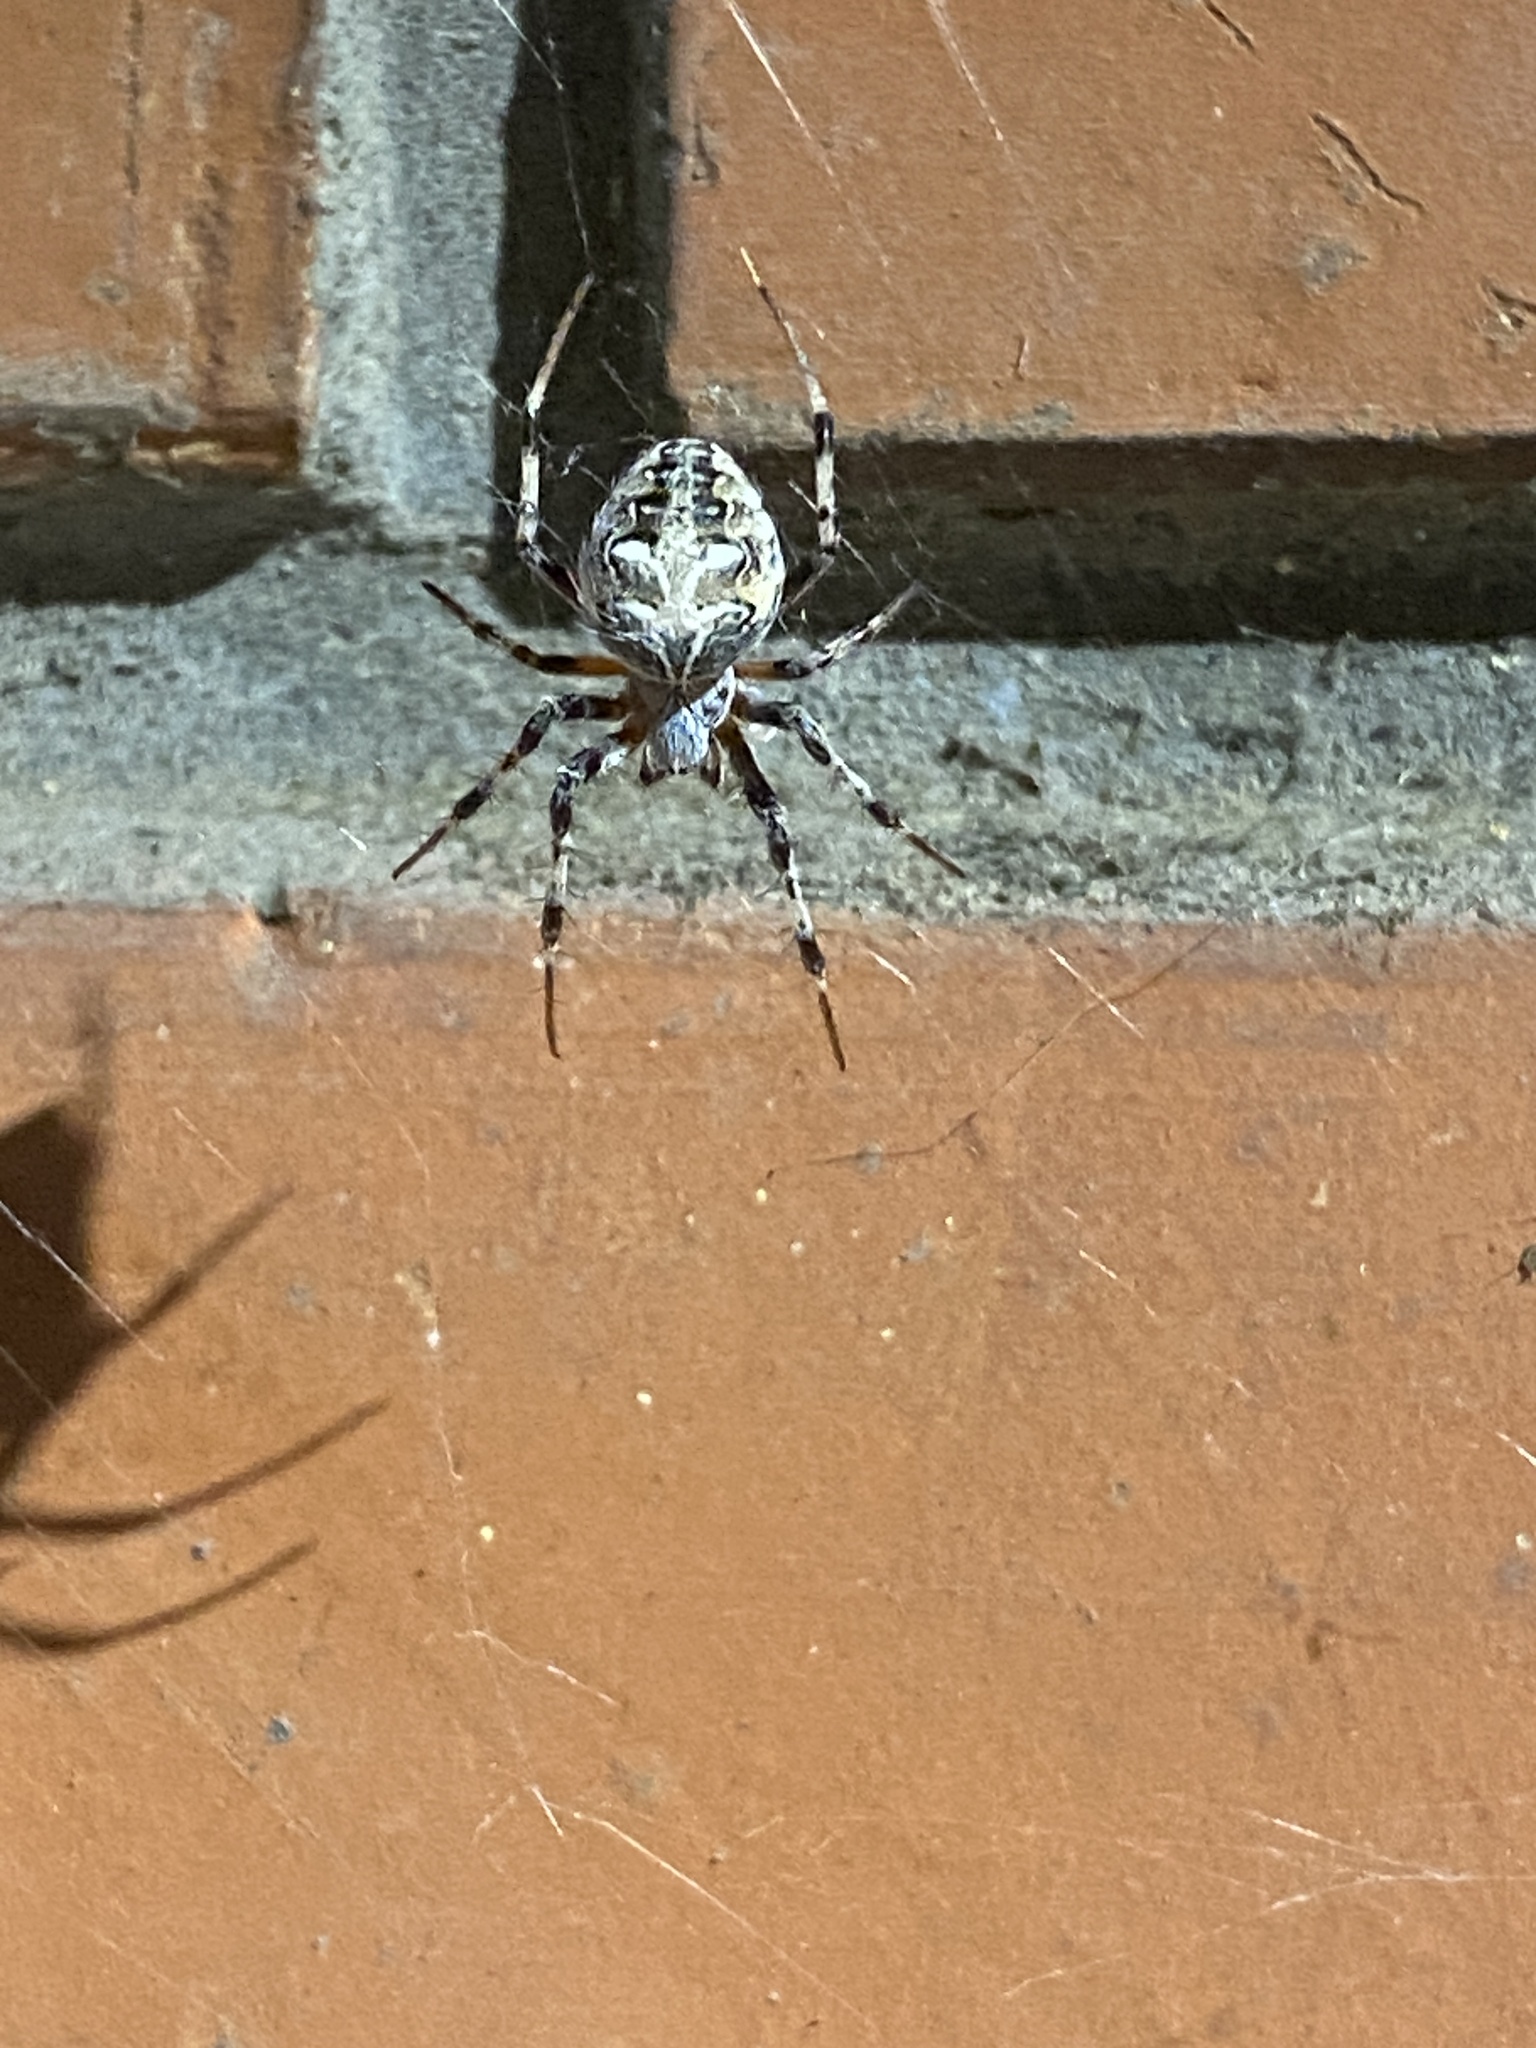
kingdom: Animalia
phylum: Arthropoda
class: Arachnida
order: Araneae
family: Araneidae
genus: Metepeira
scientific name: Metepeira
